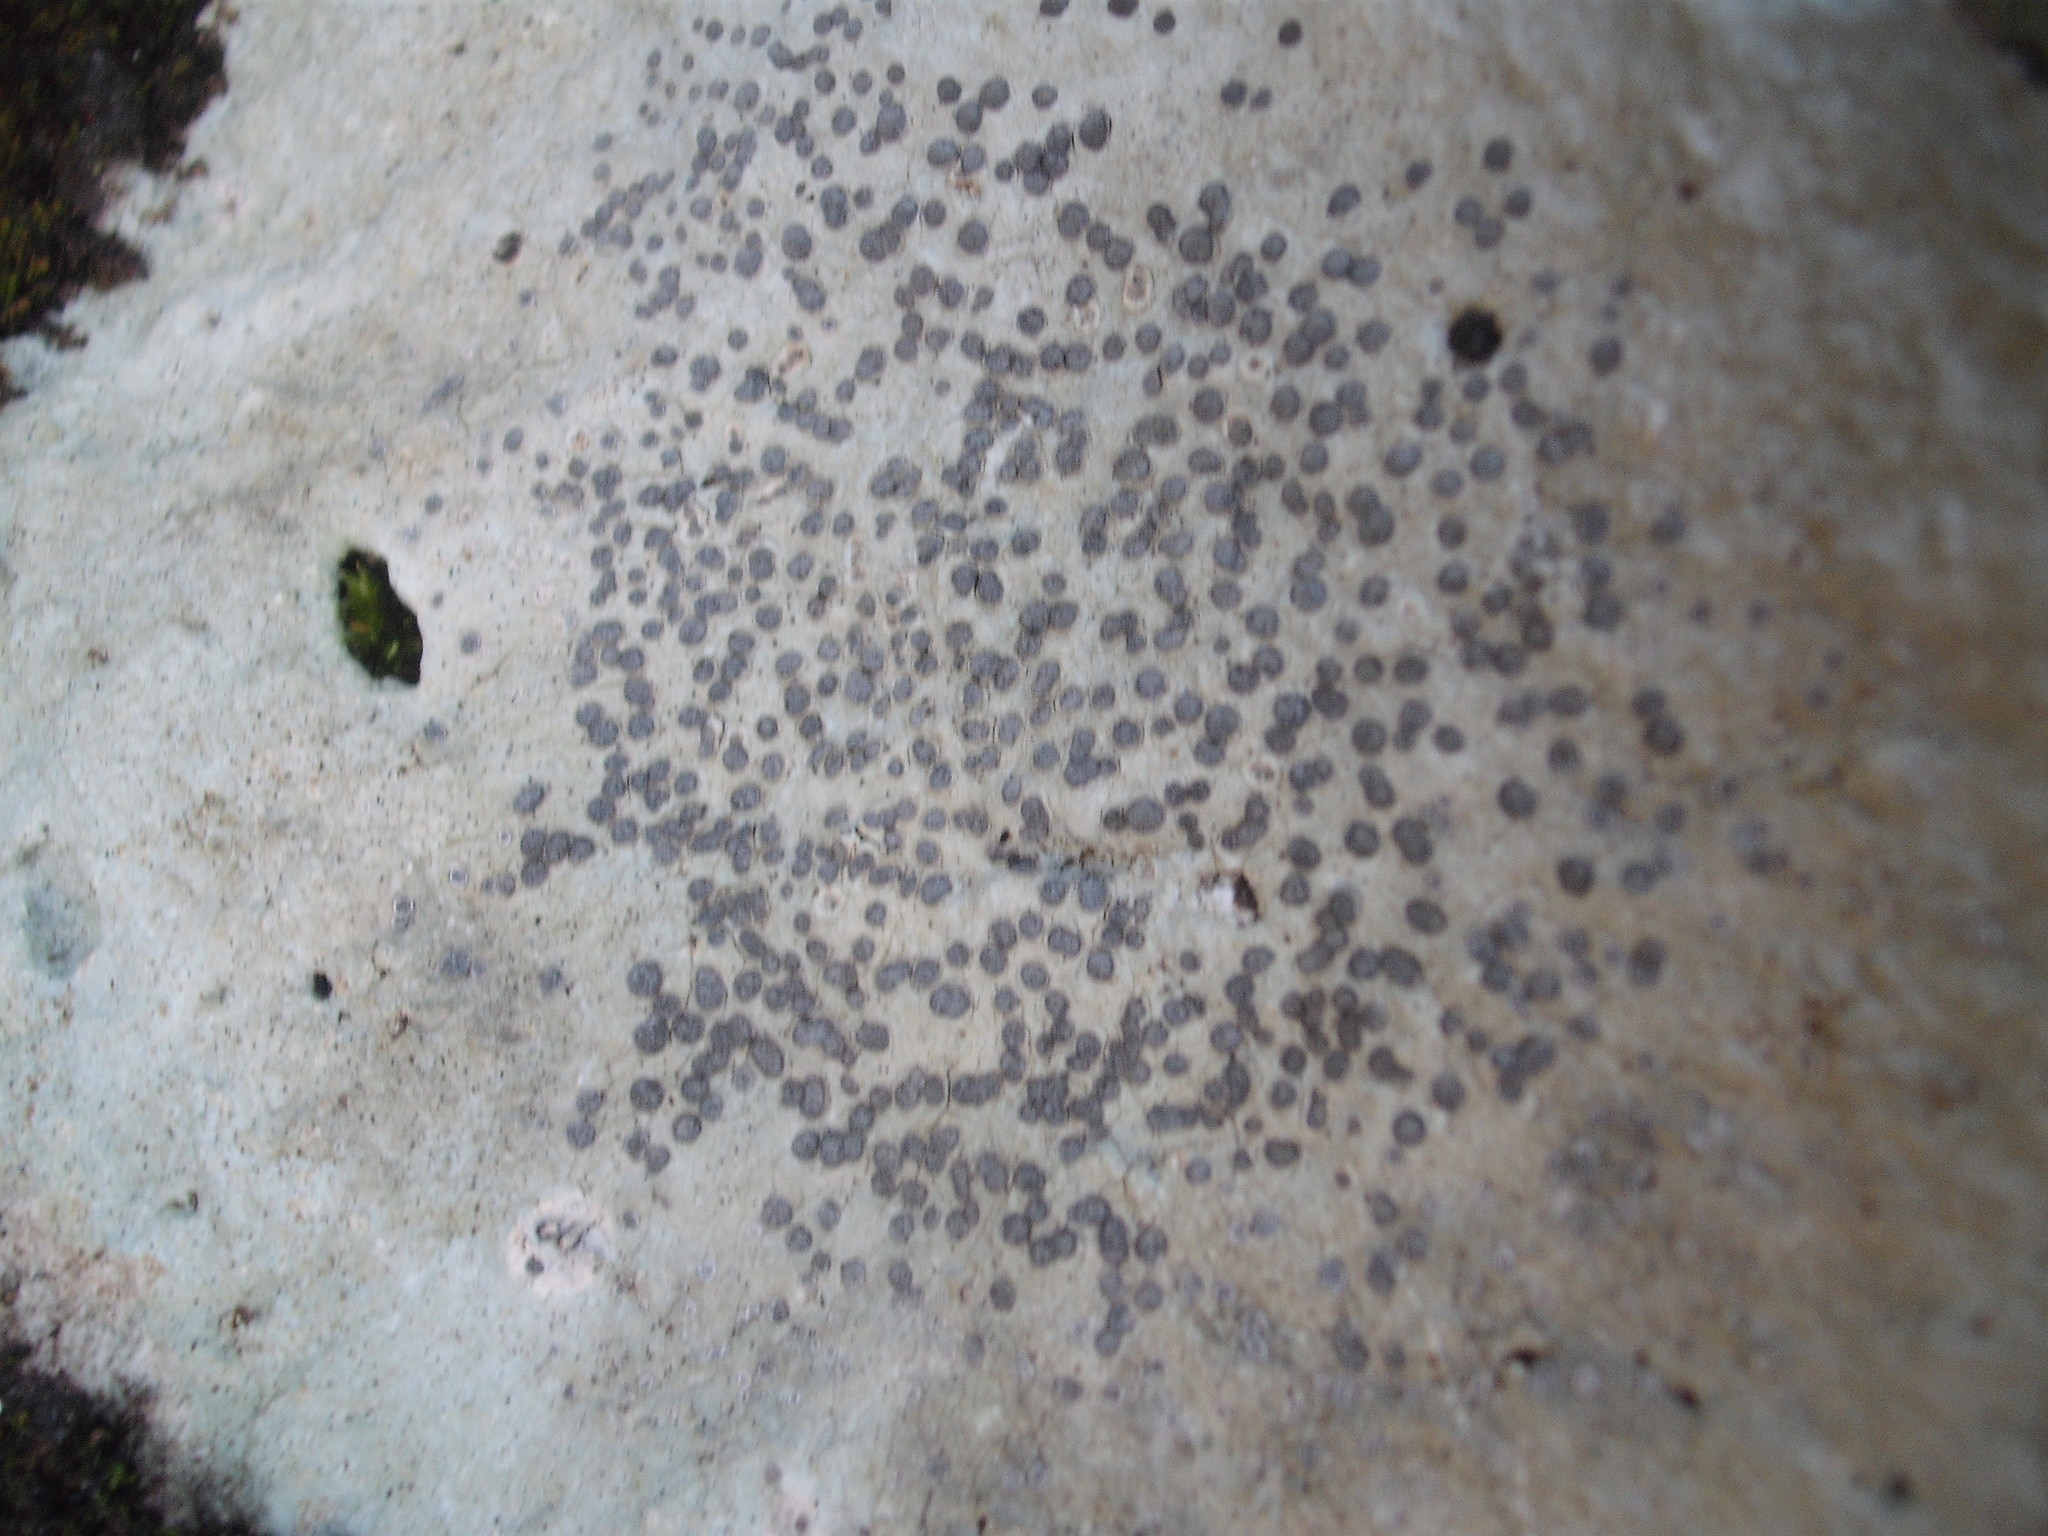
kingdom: Fungi
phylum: Ascomycota
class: Lecanoromycetes
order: Lecideales
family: Lecideaceae
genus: Porpidia
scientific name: Porpidia albocaerulescens
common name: Smokey-eyed boulder lichen
